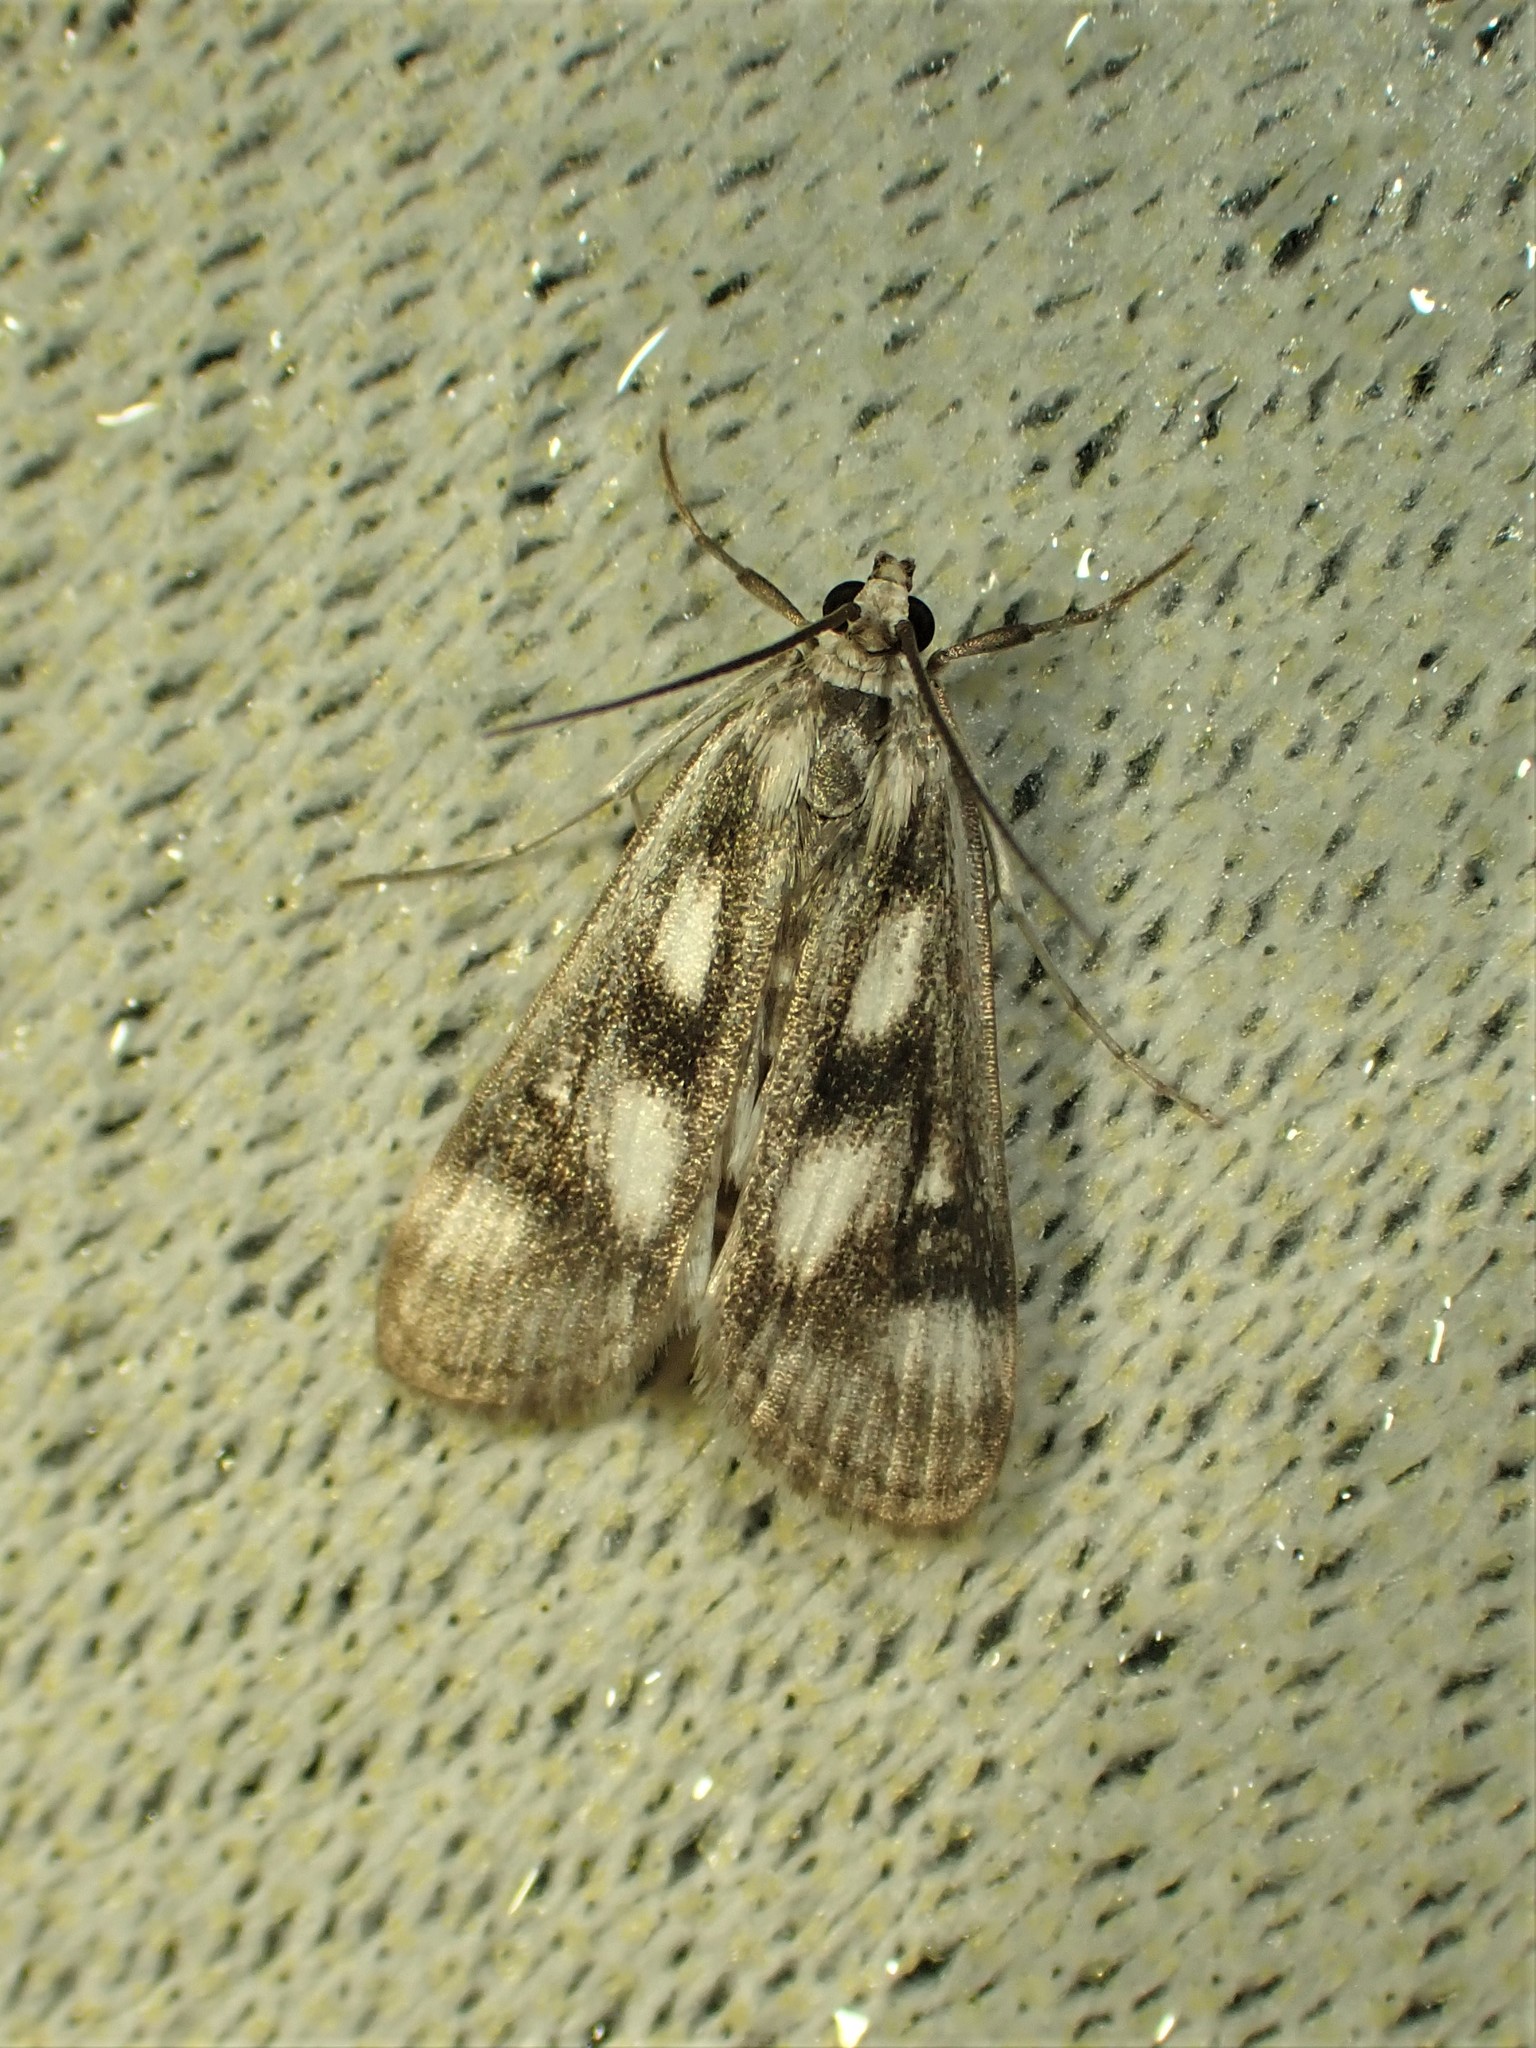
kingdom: Animalia
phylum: Arthropoda
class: Insecta
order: Lepidoptera
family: Crambidae
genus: Parapoynx
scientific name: Parapoynx maculalis
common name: Polymorphic pondweed moth
